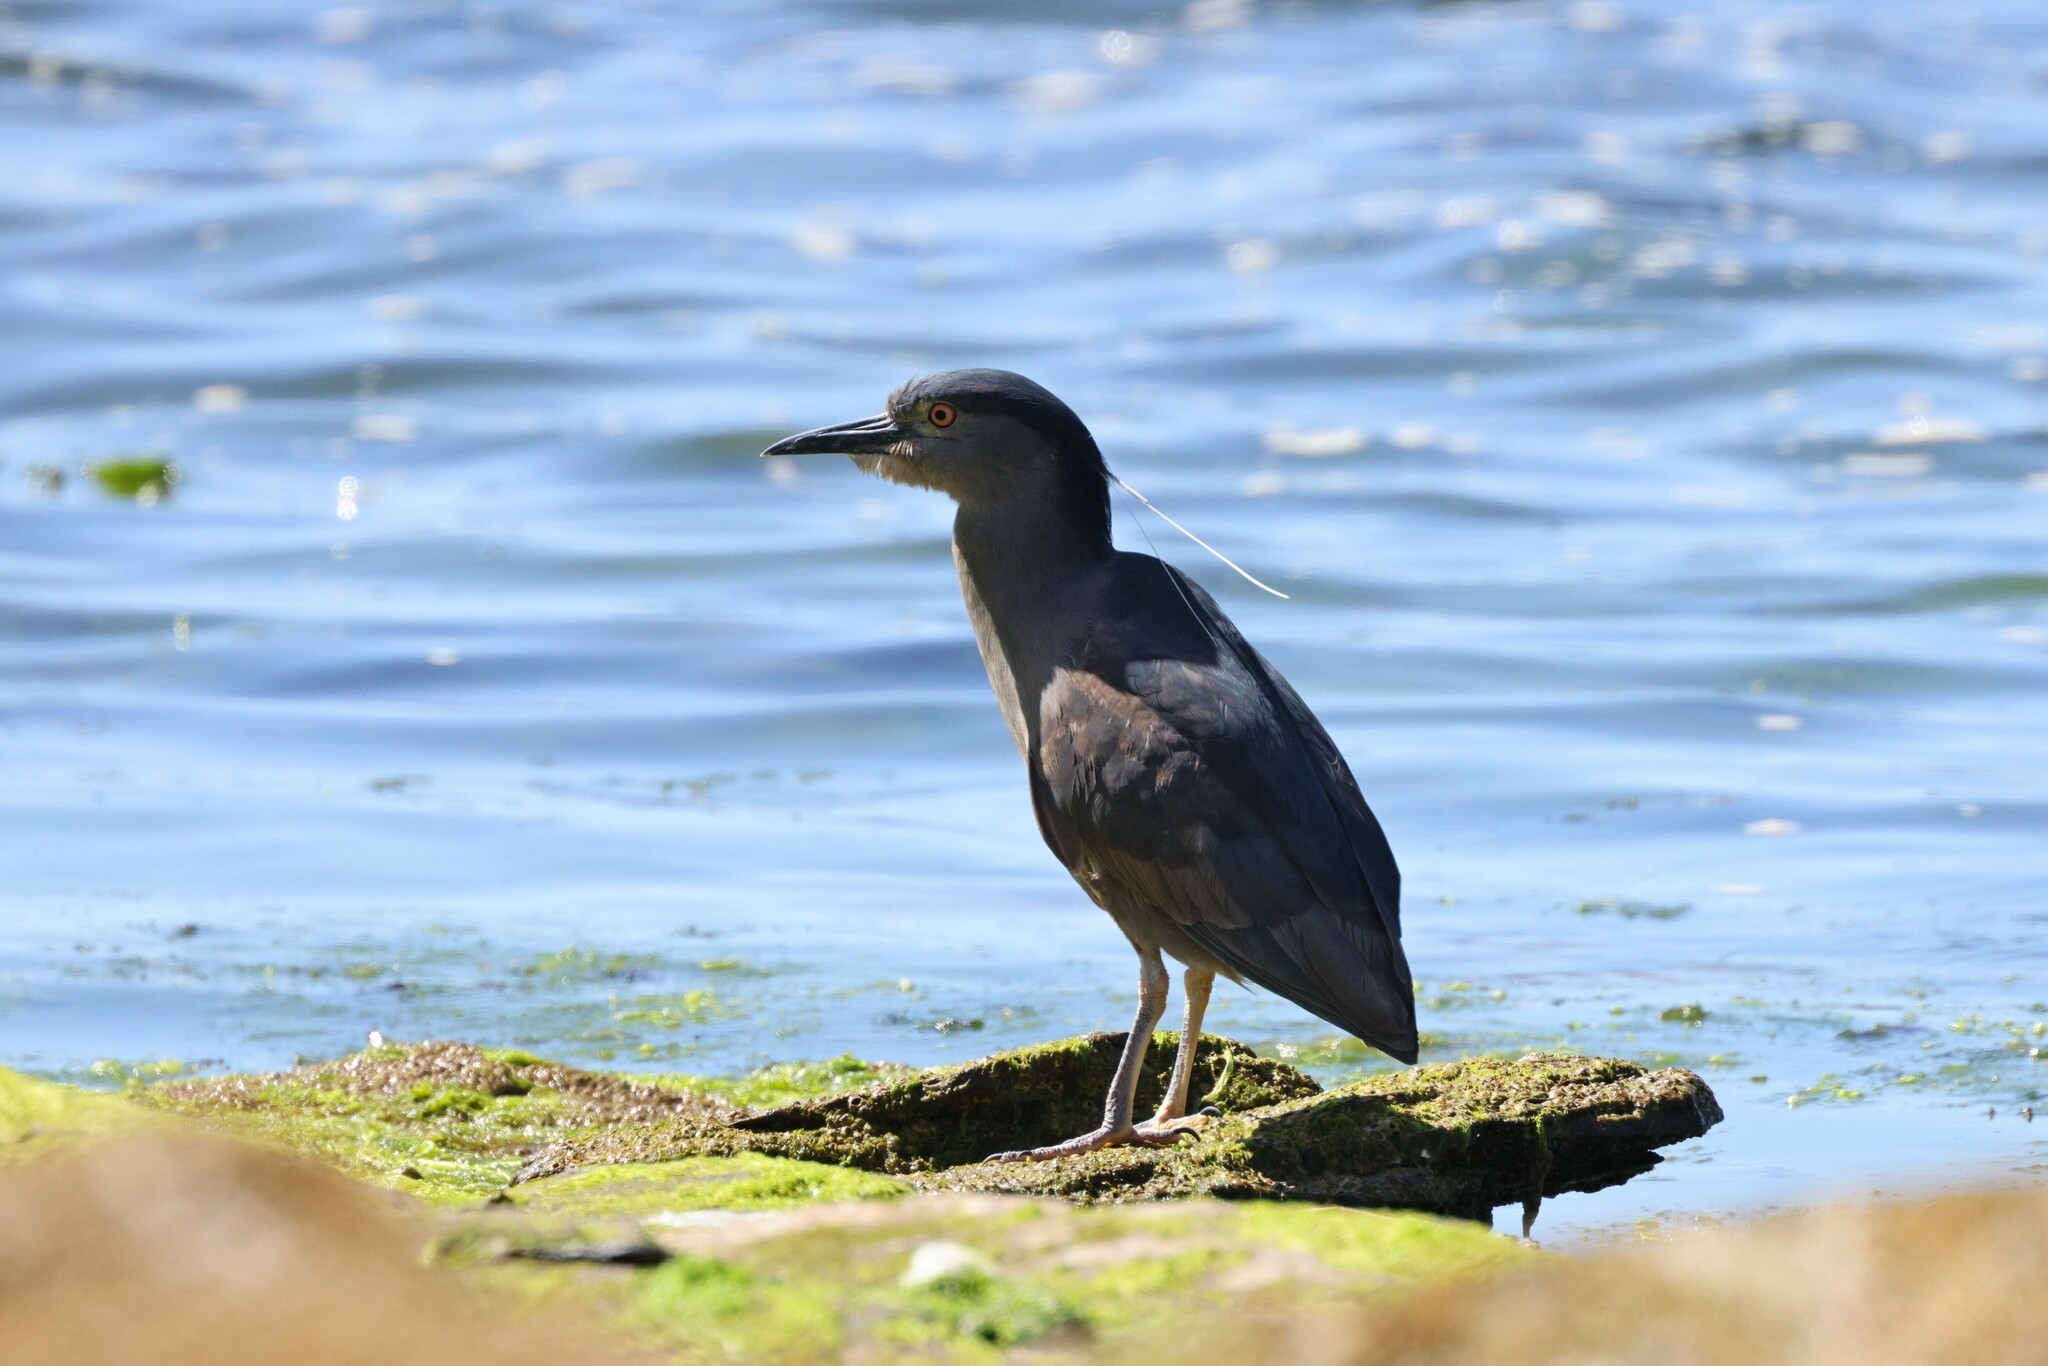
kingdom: Animalia
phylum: Chordata
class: Aves
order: Pelecaniformes
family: Ardeidae
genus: Nycticorax
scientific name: Nycticorax nycticorax
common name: Black-crowned night heron
